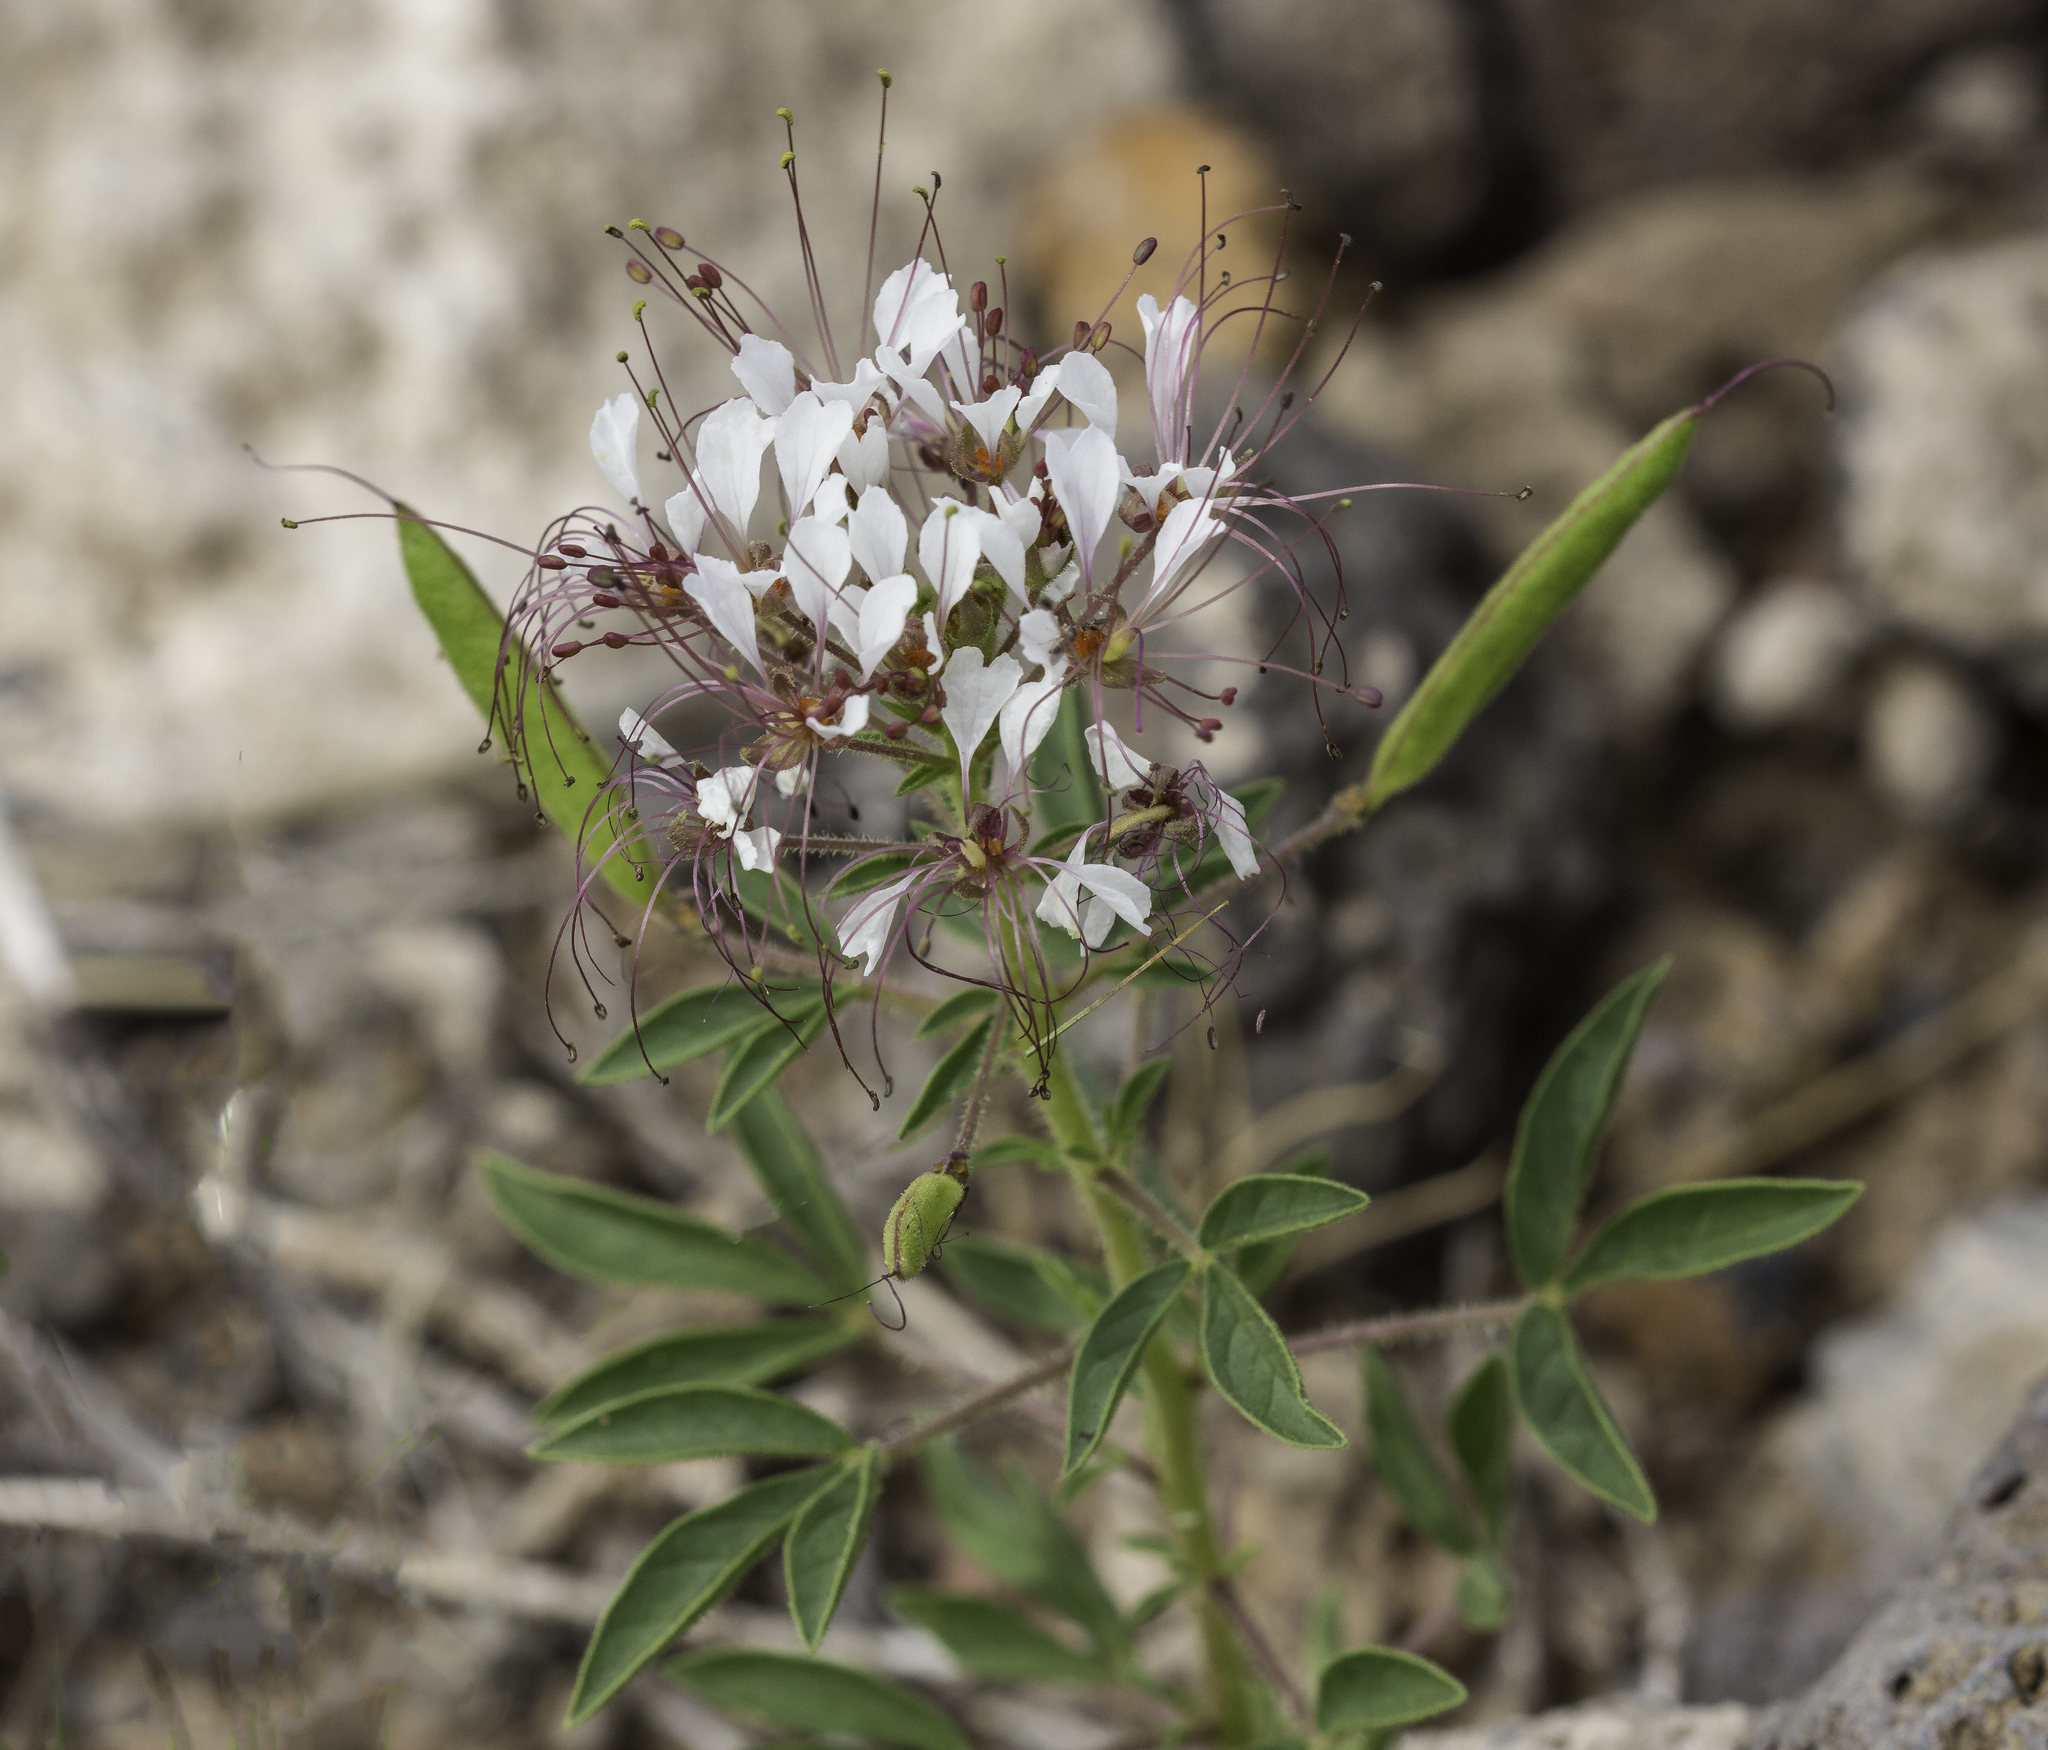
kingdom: Plantae
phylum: Tracheophyta
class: Magnoliopsida
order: Brassicales
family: Cleomaceae
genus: Polanisia
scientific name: Polanisia dodecandra
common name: Clammyweed
